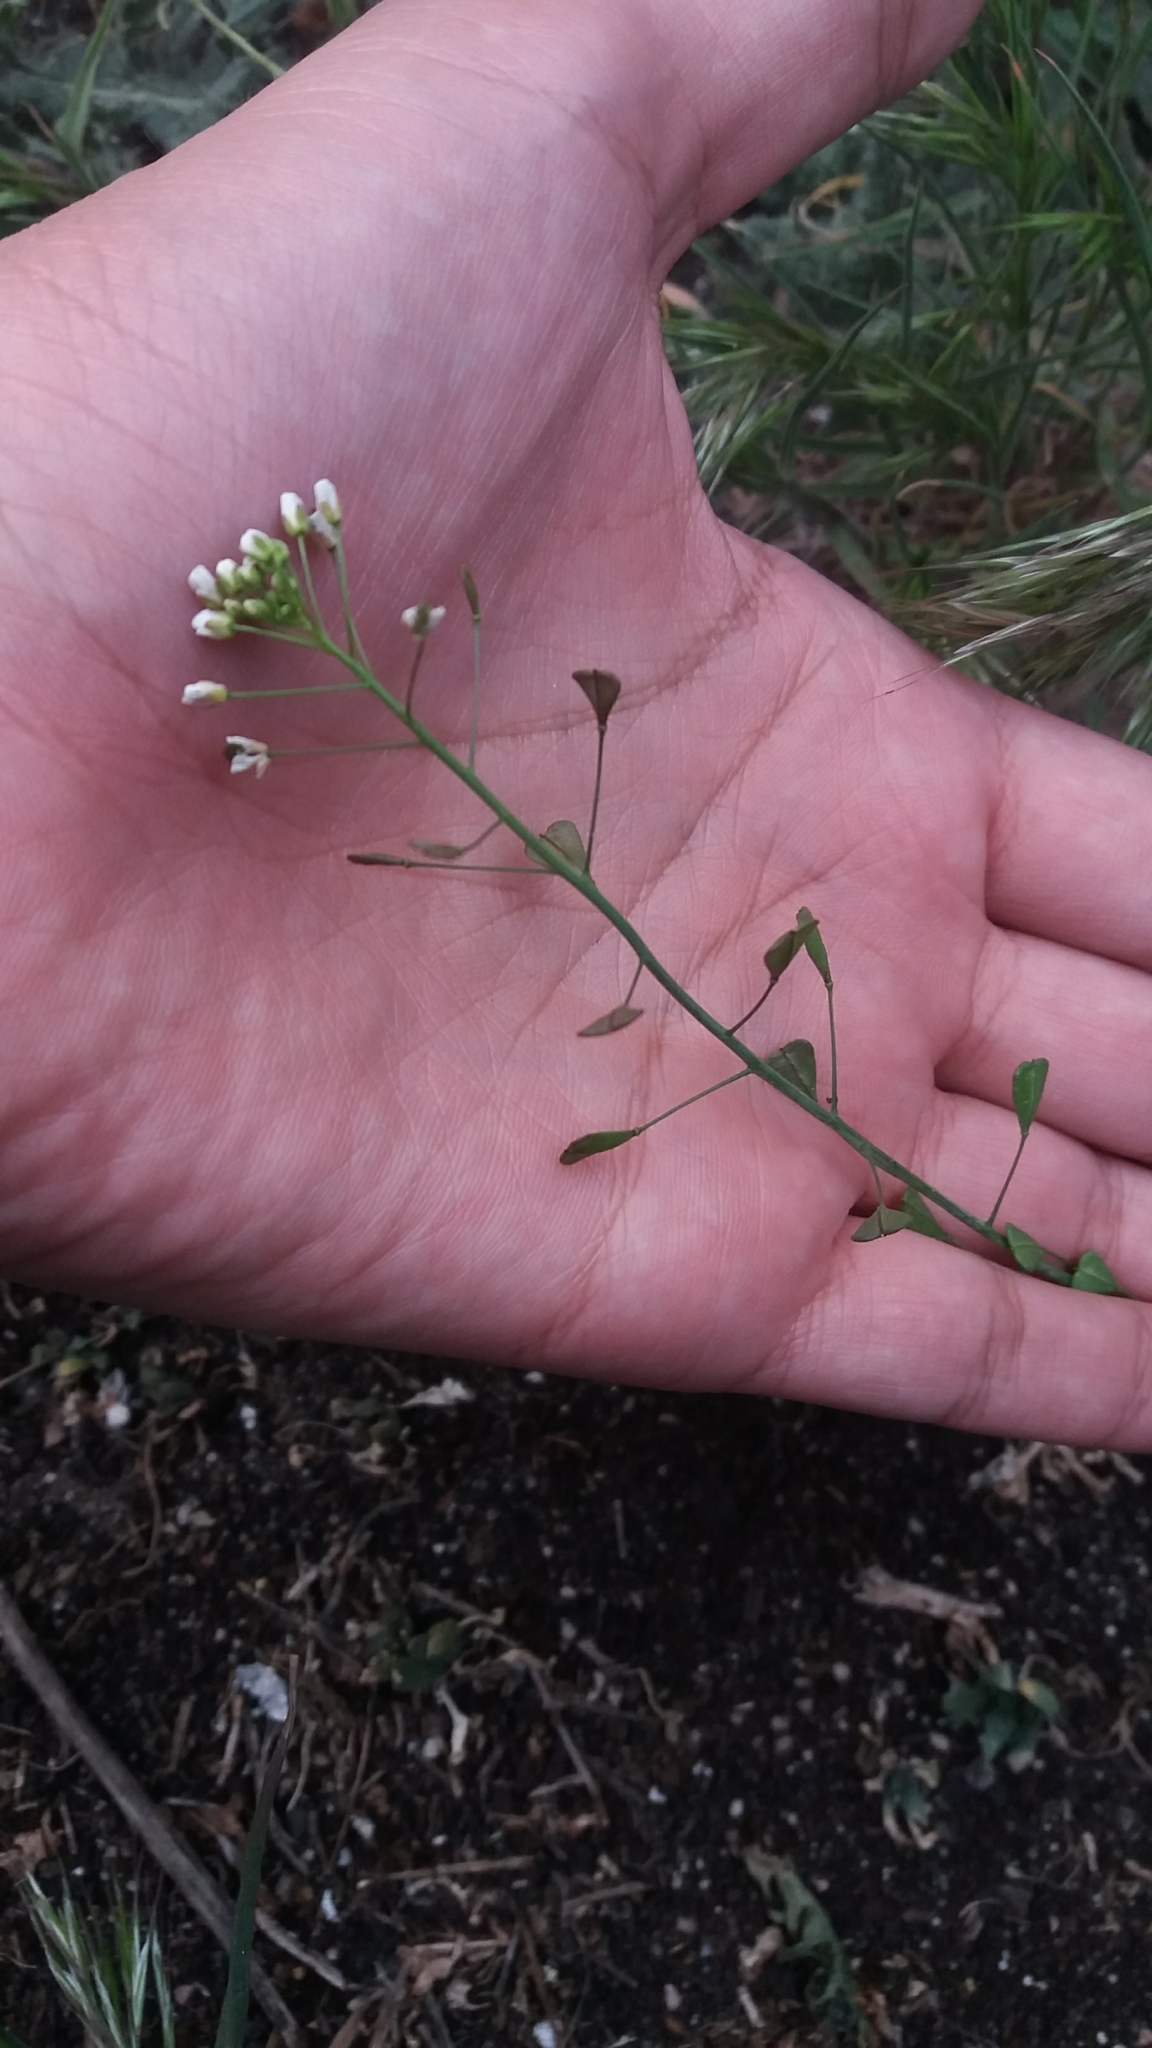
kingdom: Plantae
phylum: Tracheophyta
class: Magnoliopsida
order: Brassicales
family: Brassicaceae
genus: Capsella
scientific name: Capsella bursa-pastoris
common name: Shepherd's purse
